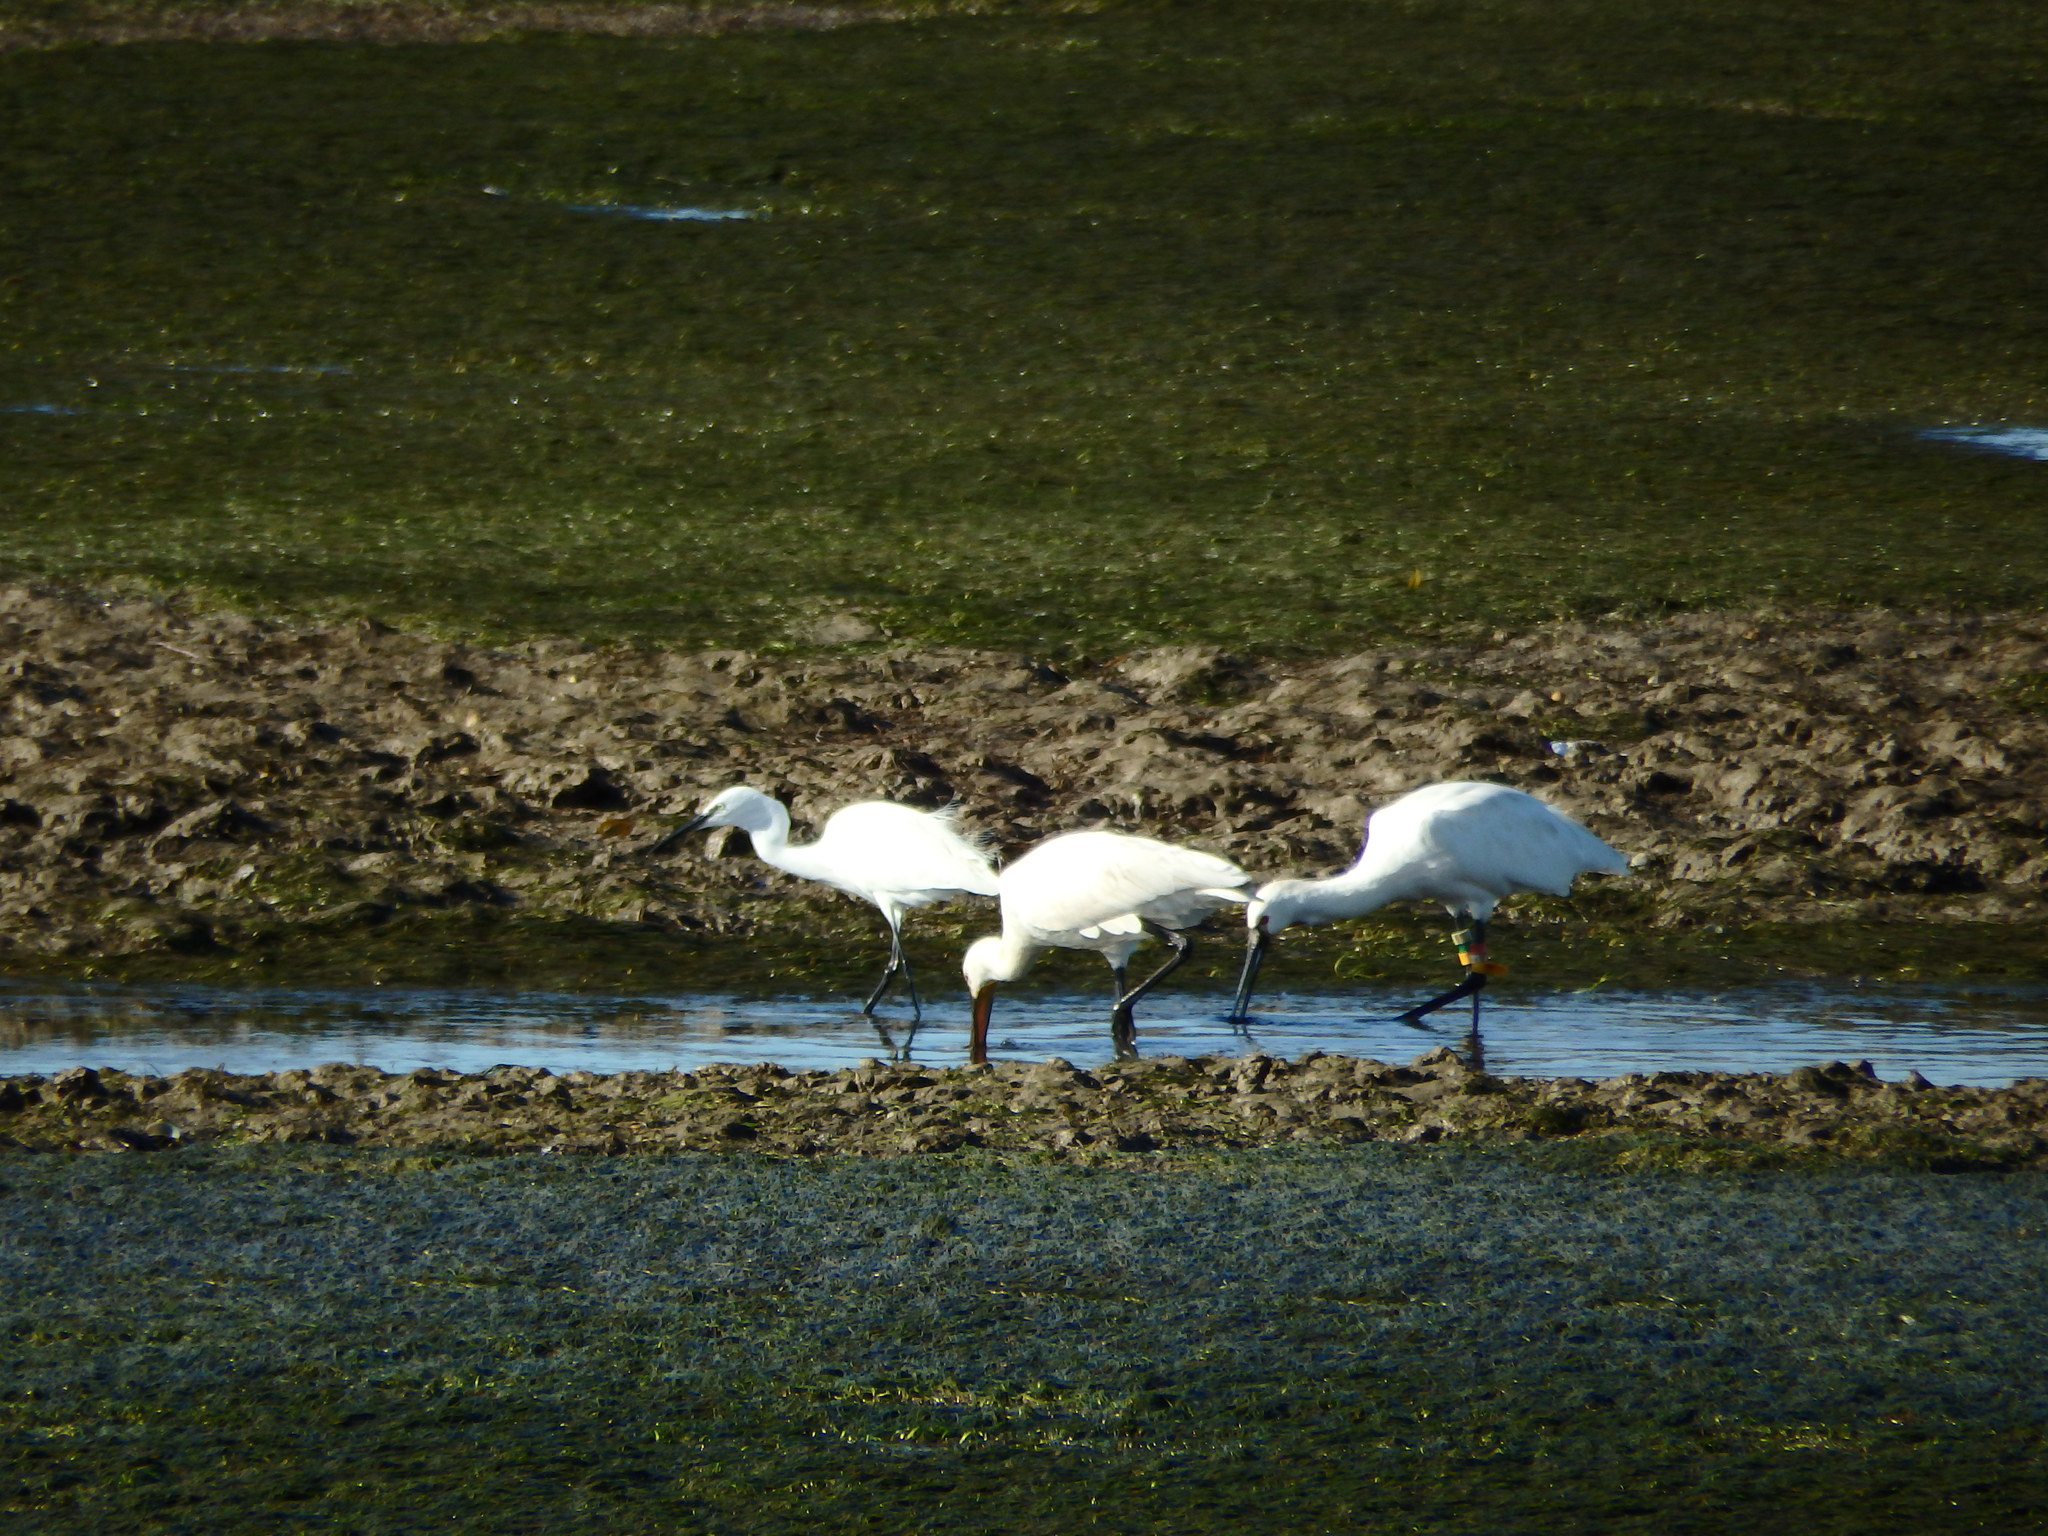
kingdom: Animalia
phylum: Chordata
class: Aves
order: Pelecaniformes
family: Ardeidae
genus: Egretta
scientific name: Egretta garzetta
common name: Little egret
